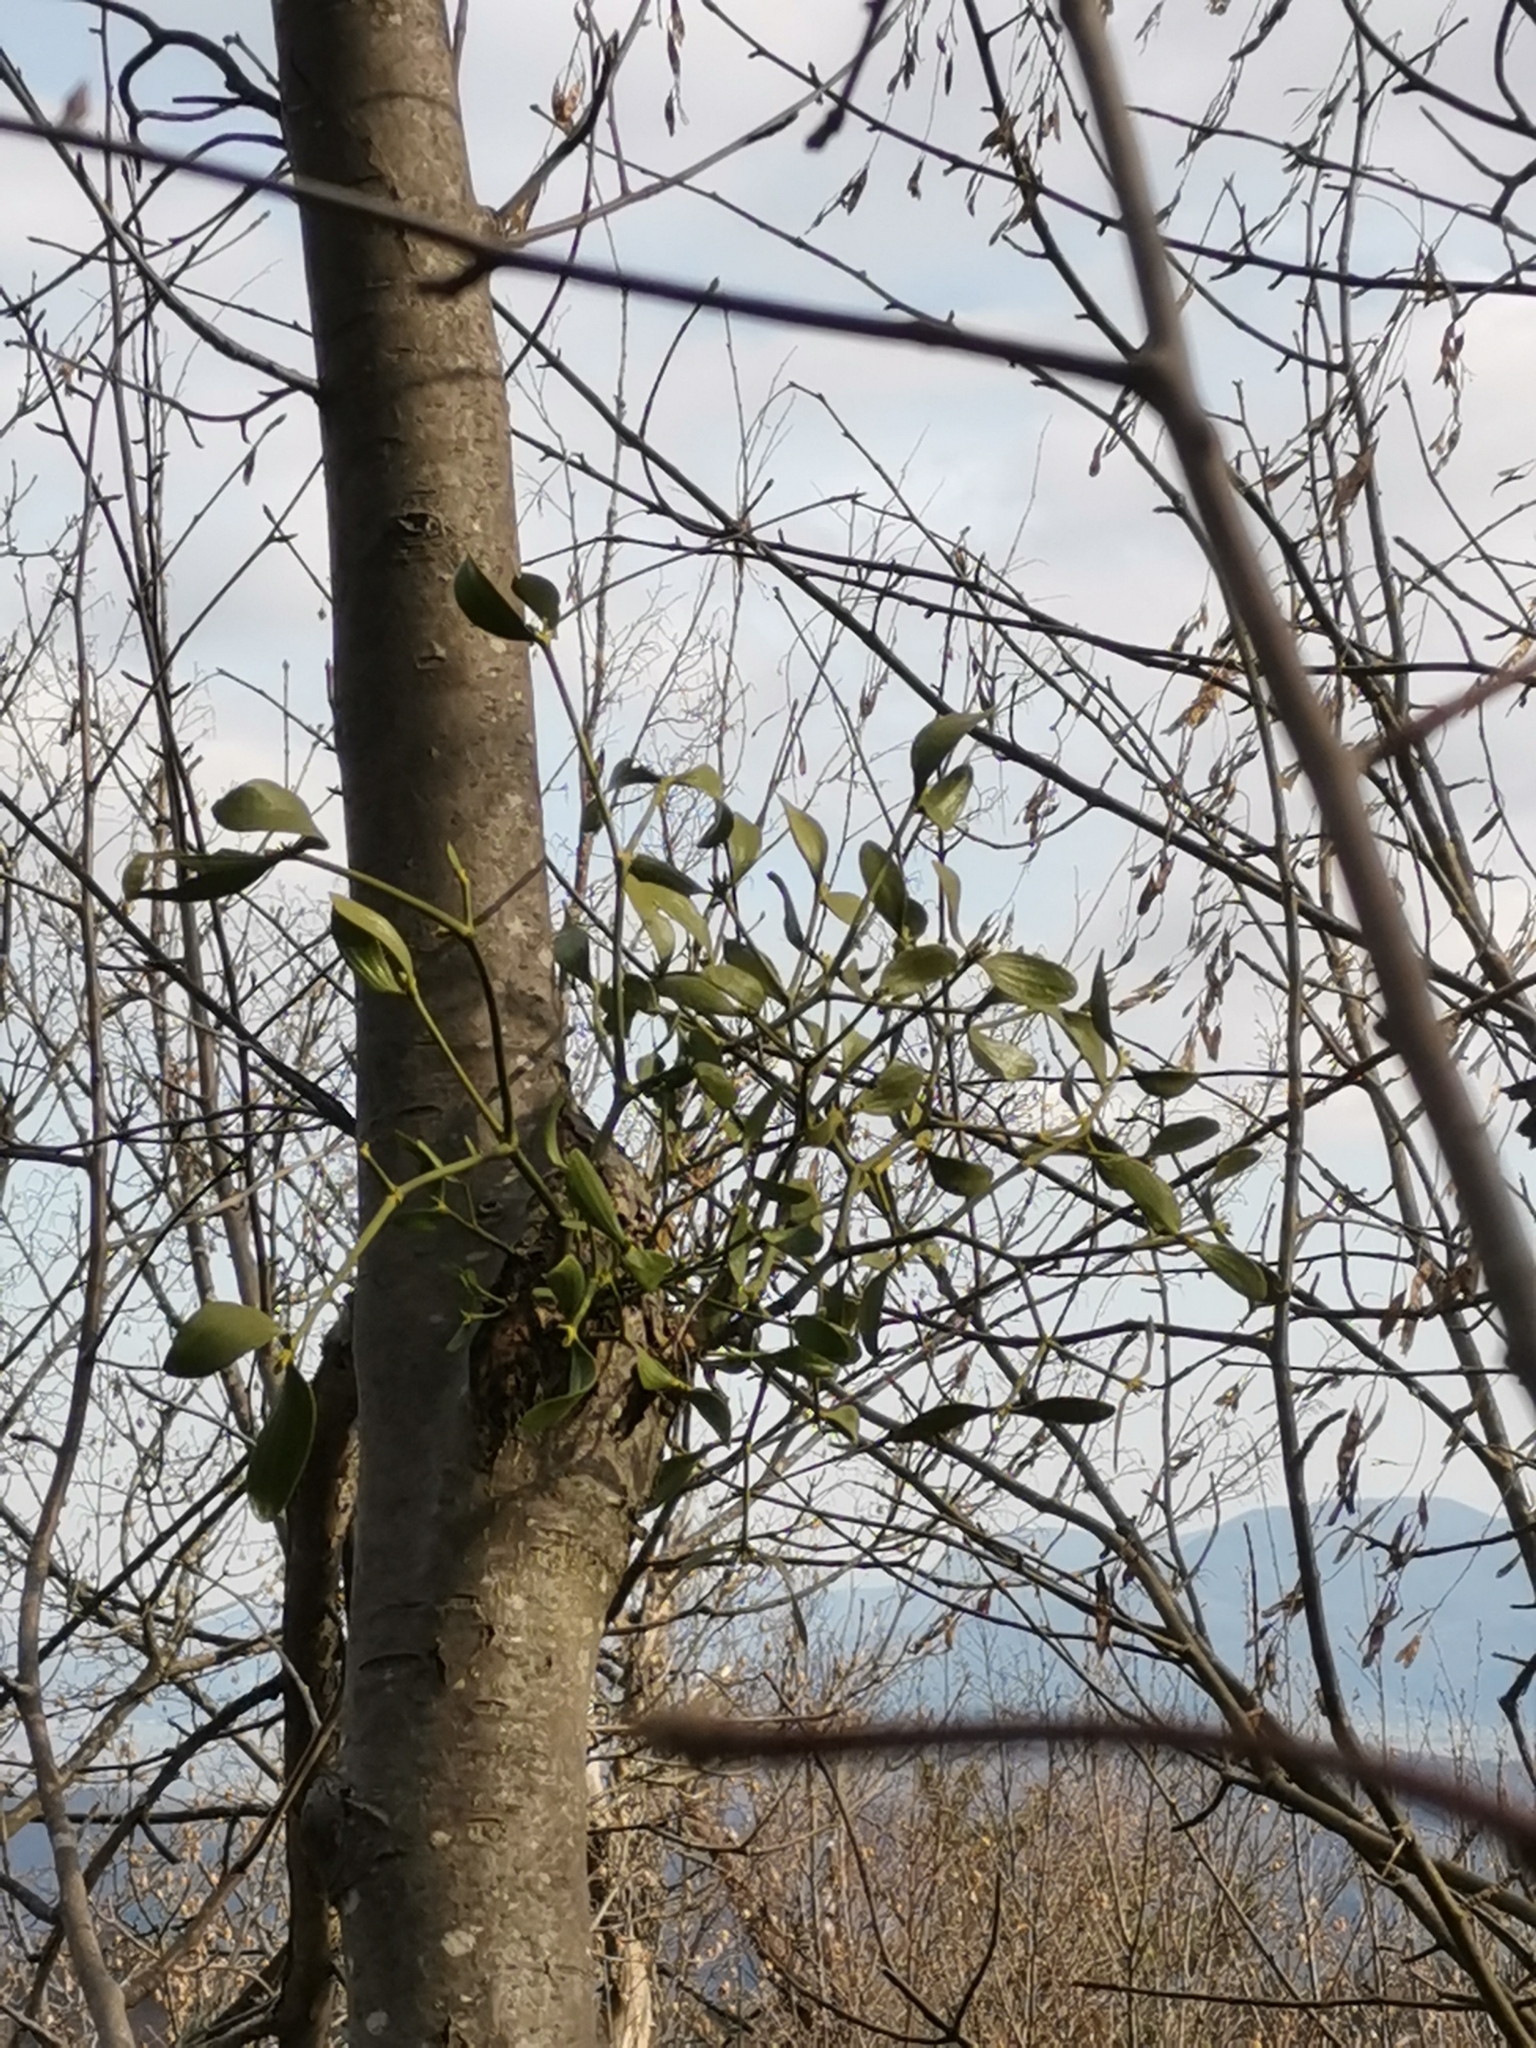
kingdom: Plantae
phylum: Tracheophyta
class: Magnoliopsida
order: Santalales
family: Viscaceae
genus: Viscum
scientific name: Viscum album
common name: Mistletoe
